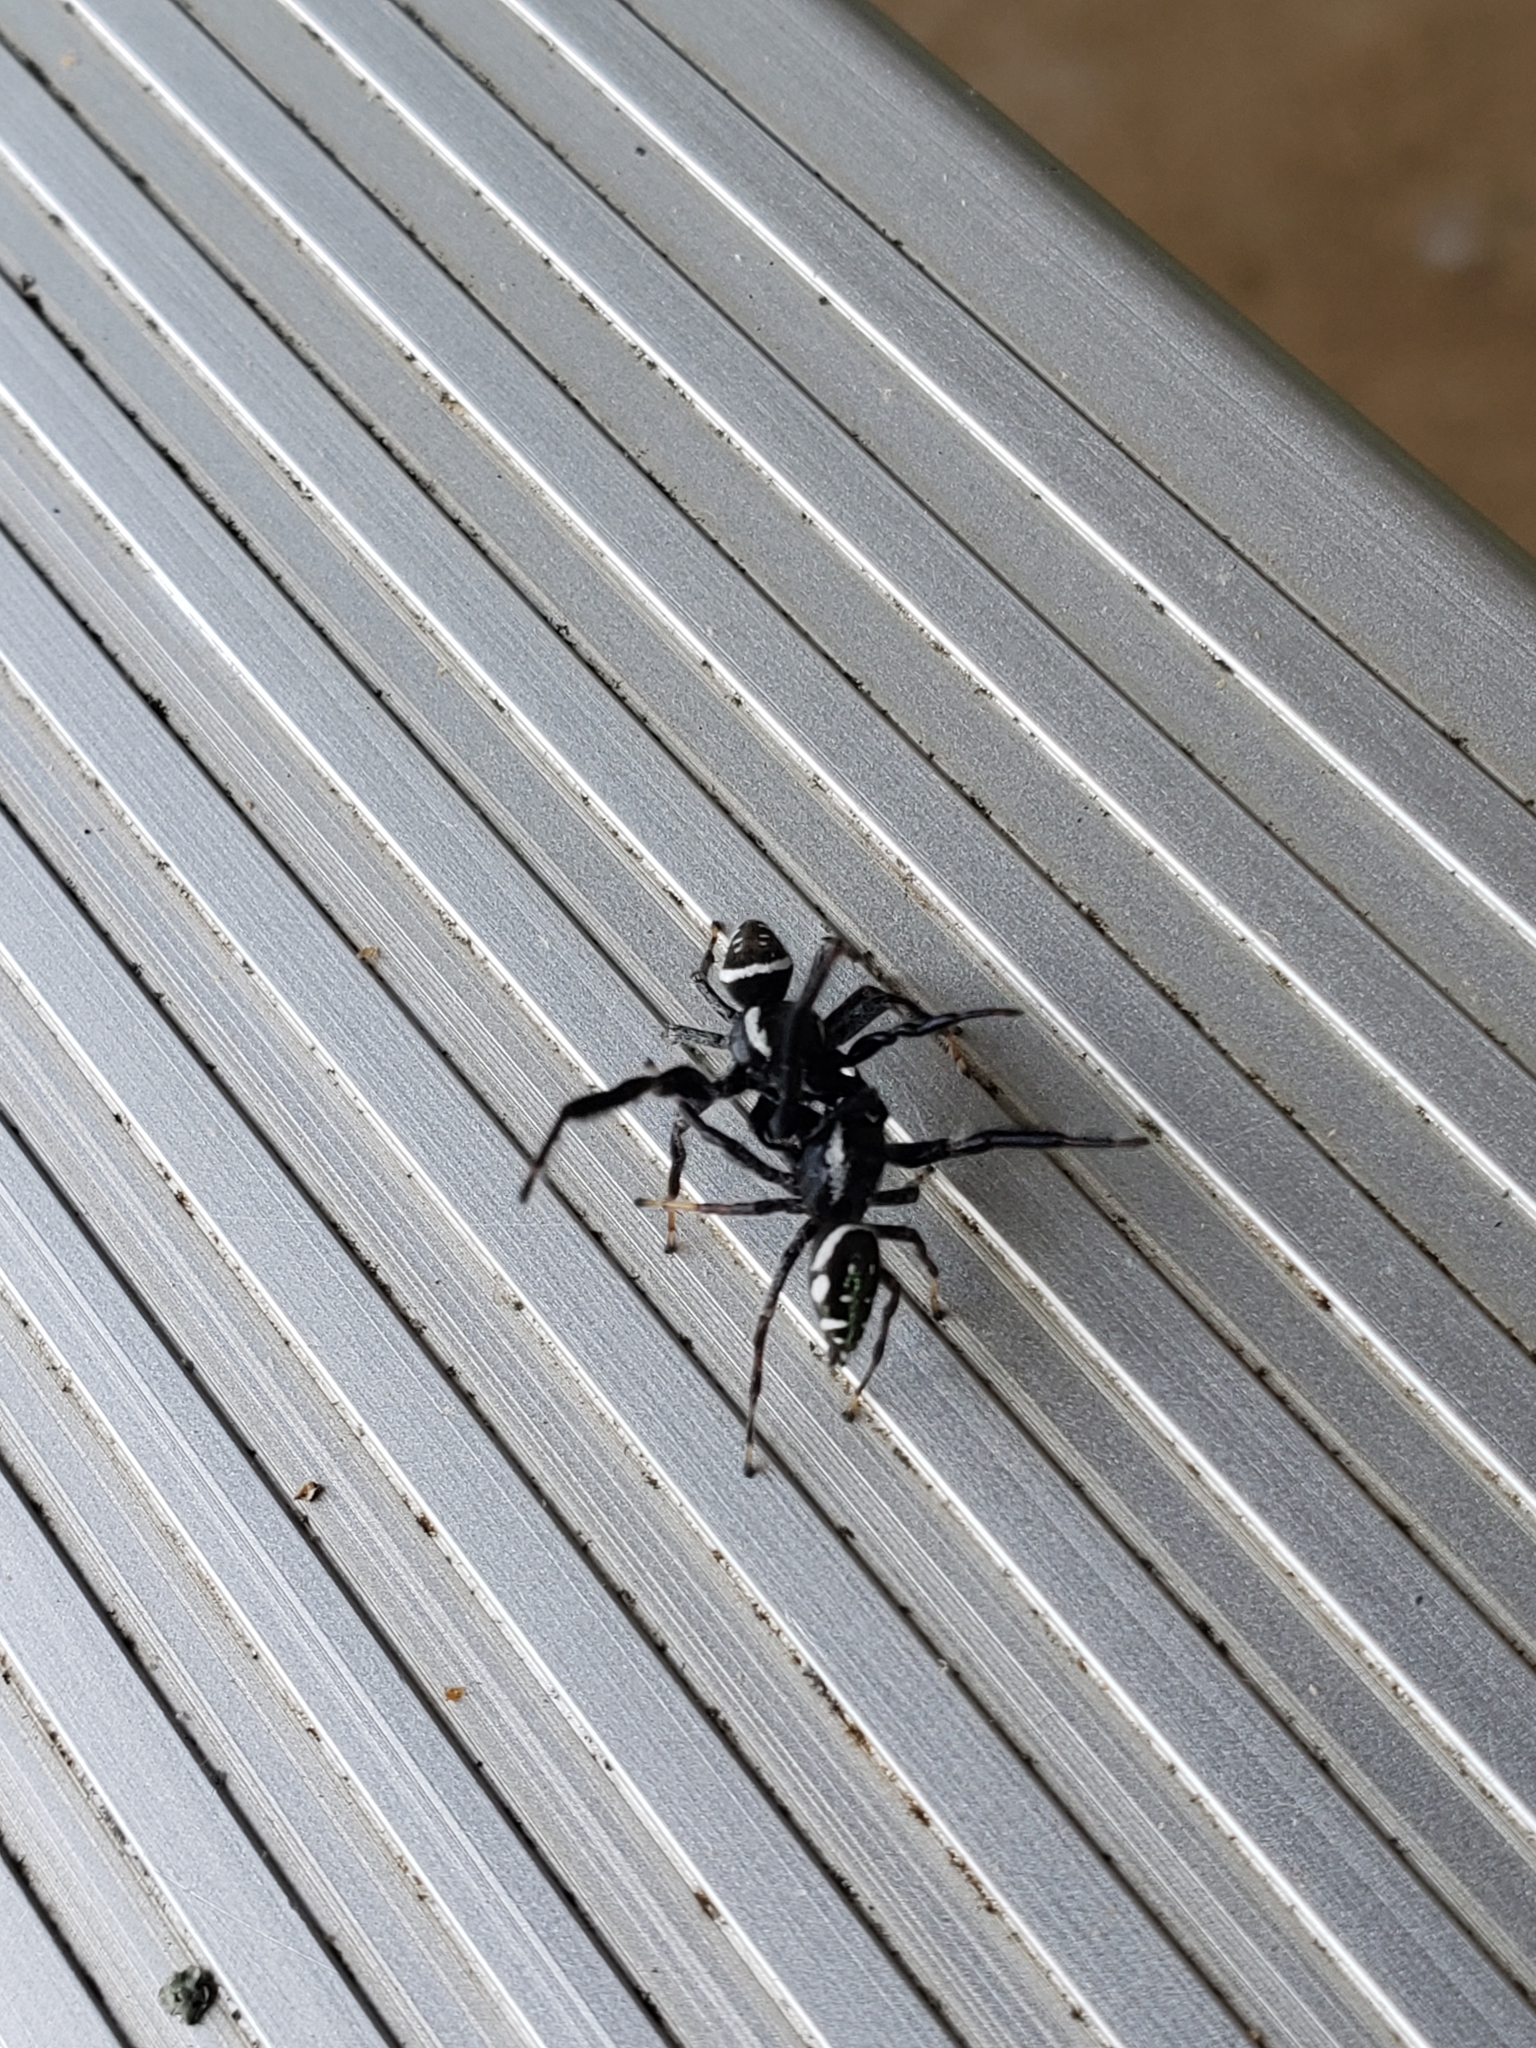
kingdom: Animalia
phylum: Arthropoda
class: Arachnida
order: Araneae
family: Salticidae
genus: Paraphidippus
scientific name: Paraphidippus aurantius
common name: Jumping spiders
